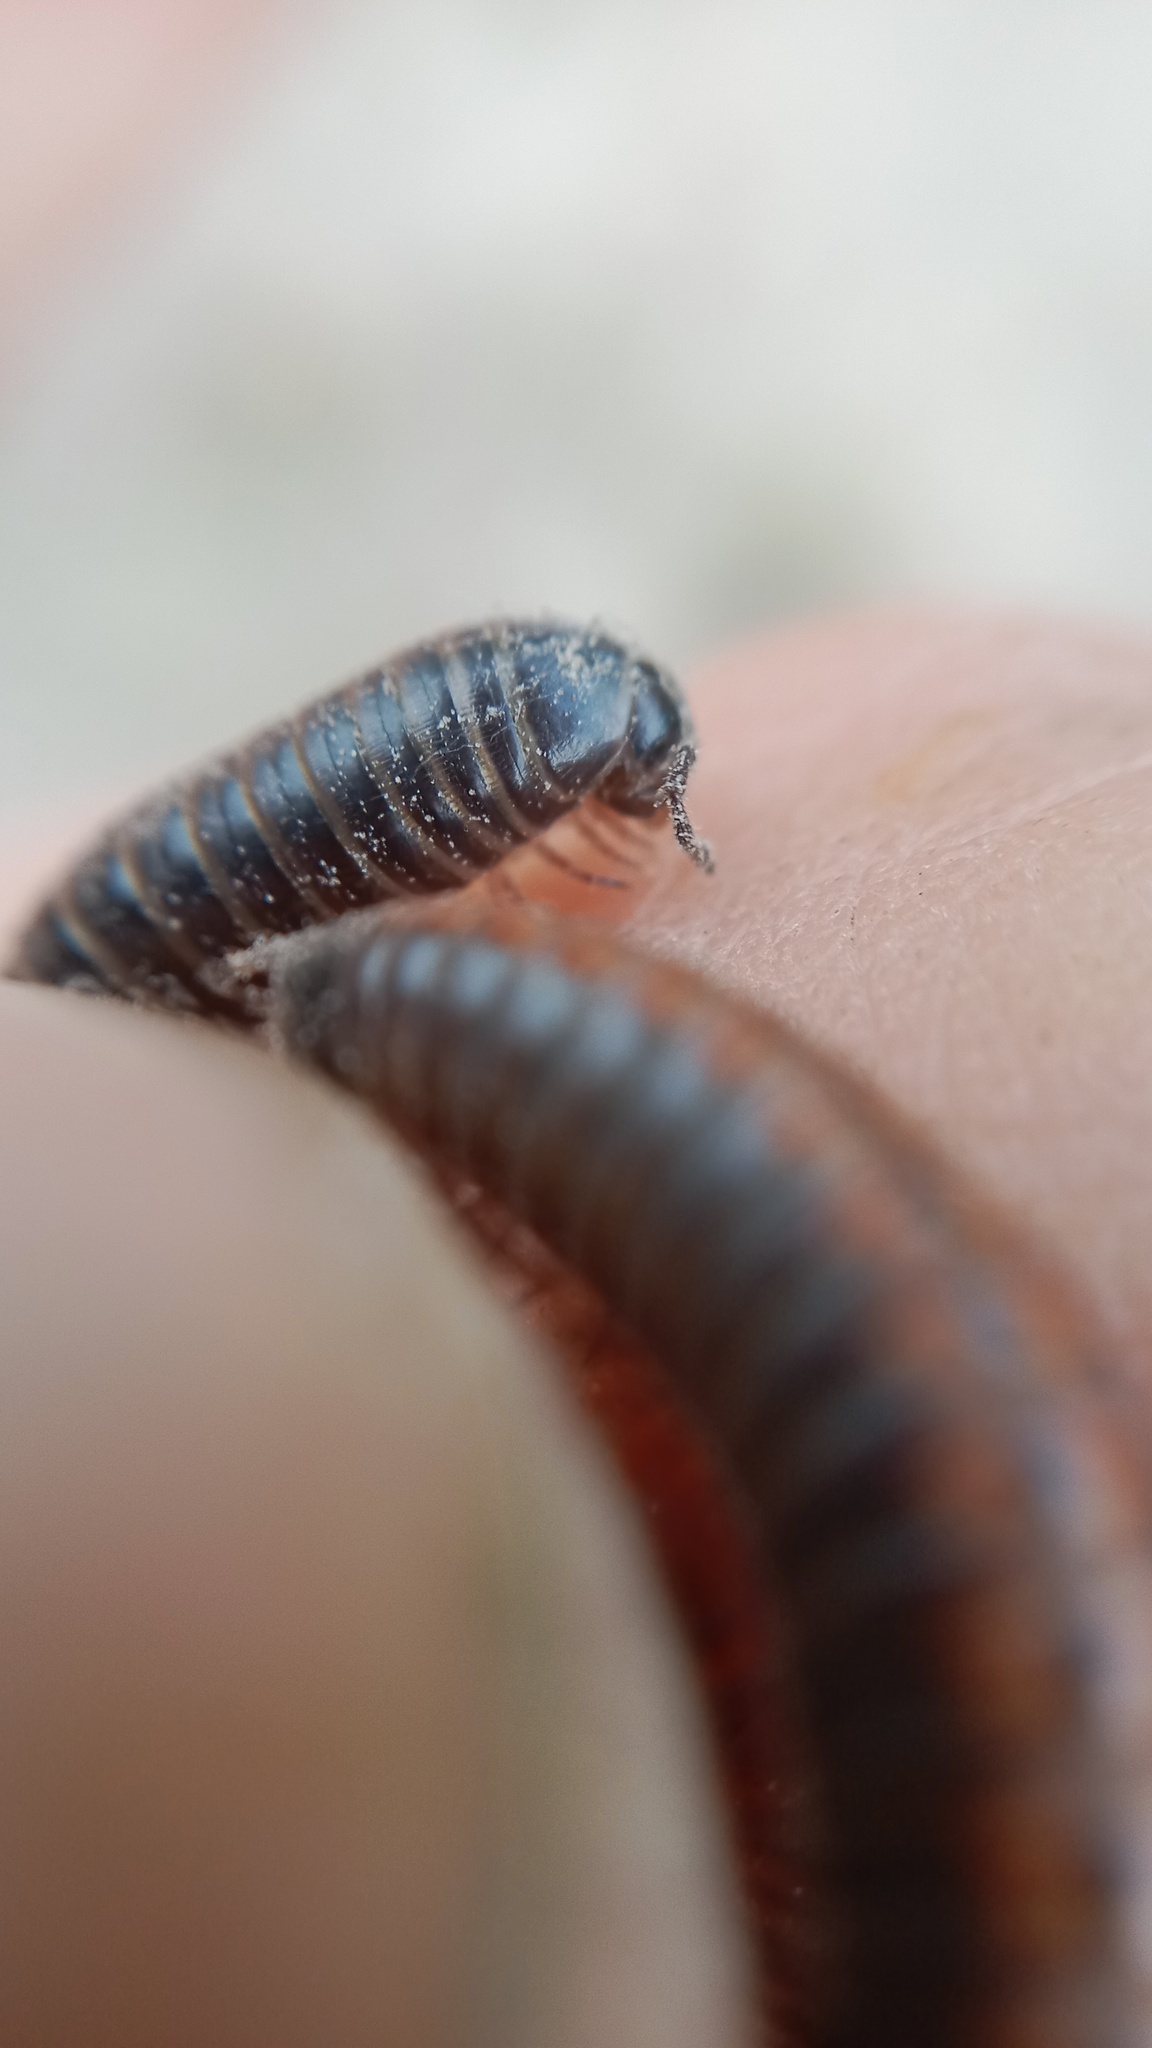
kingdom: Animalia
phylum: Arthropoda
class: Diplopoda
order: Julida
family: Julidae
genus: Ommatoiulus
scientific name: Ommatoiulus sabulosus
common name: Striped millipede
